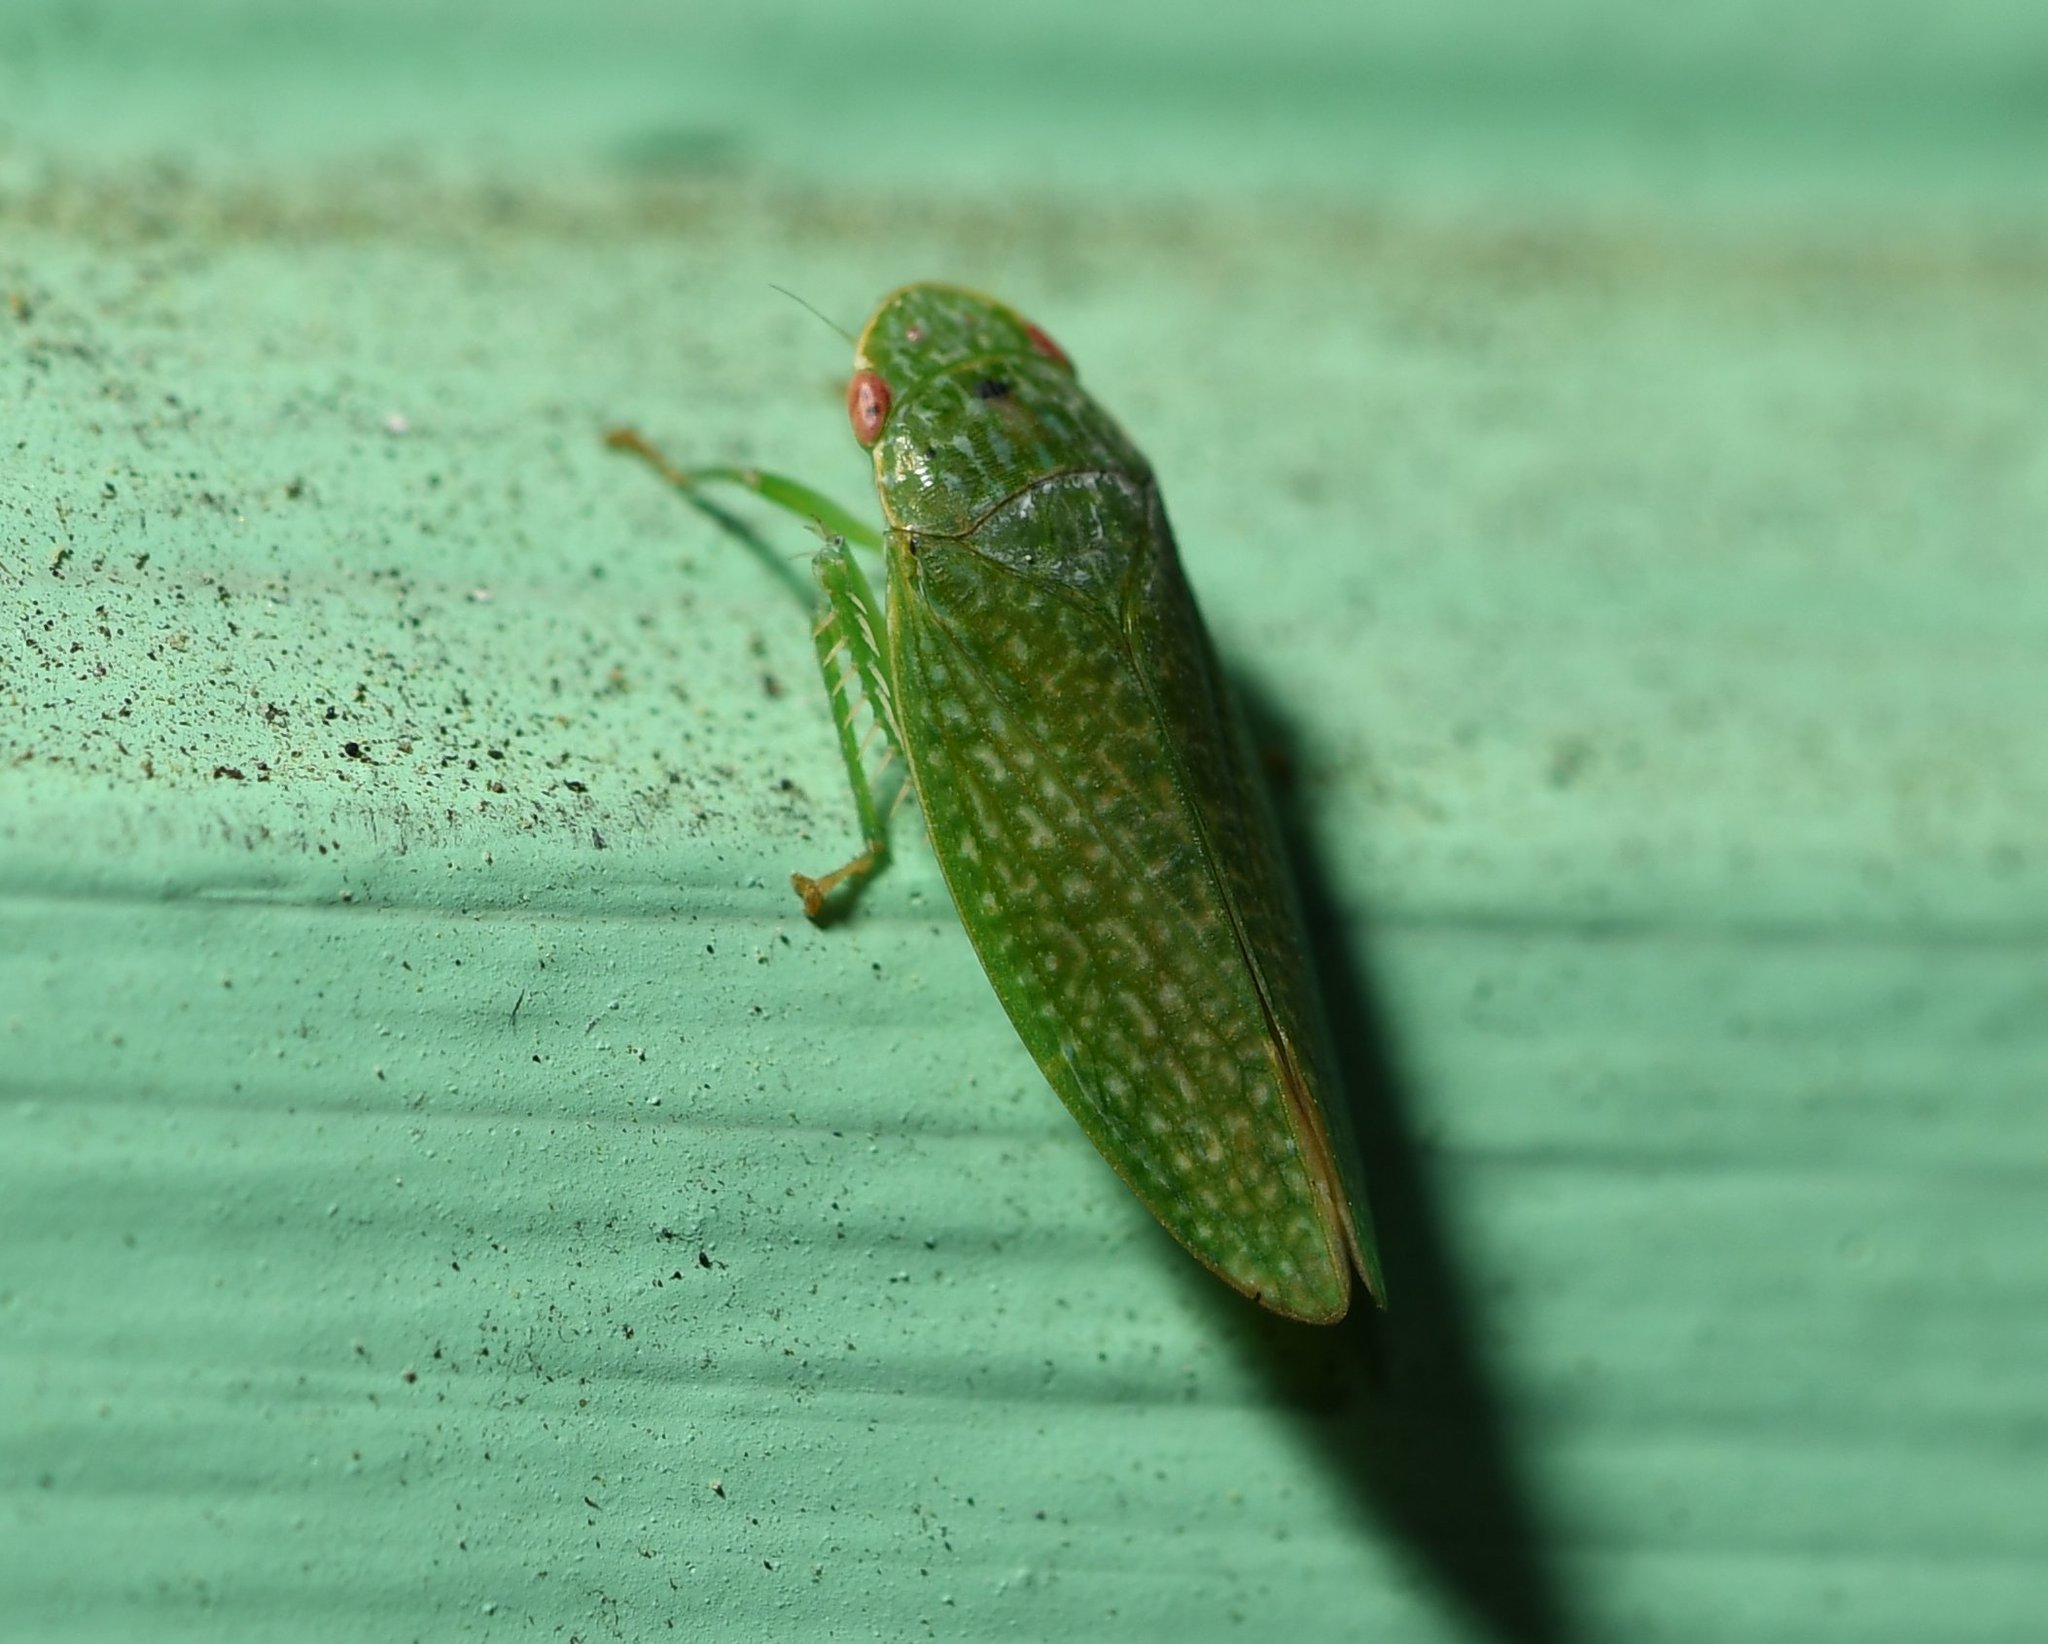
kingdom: Animalia
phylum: Arthropoda
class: Insecta
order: Hemiptera
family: Cicadellidae
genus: Rugosana
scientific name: Rugosana querci
